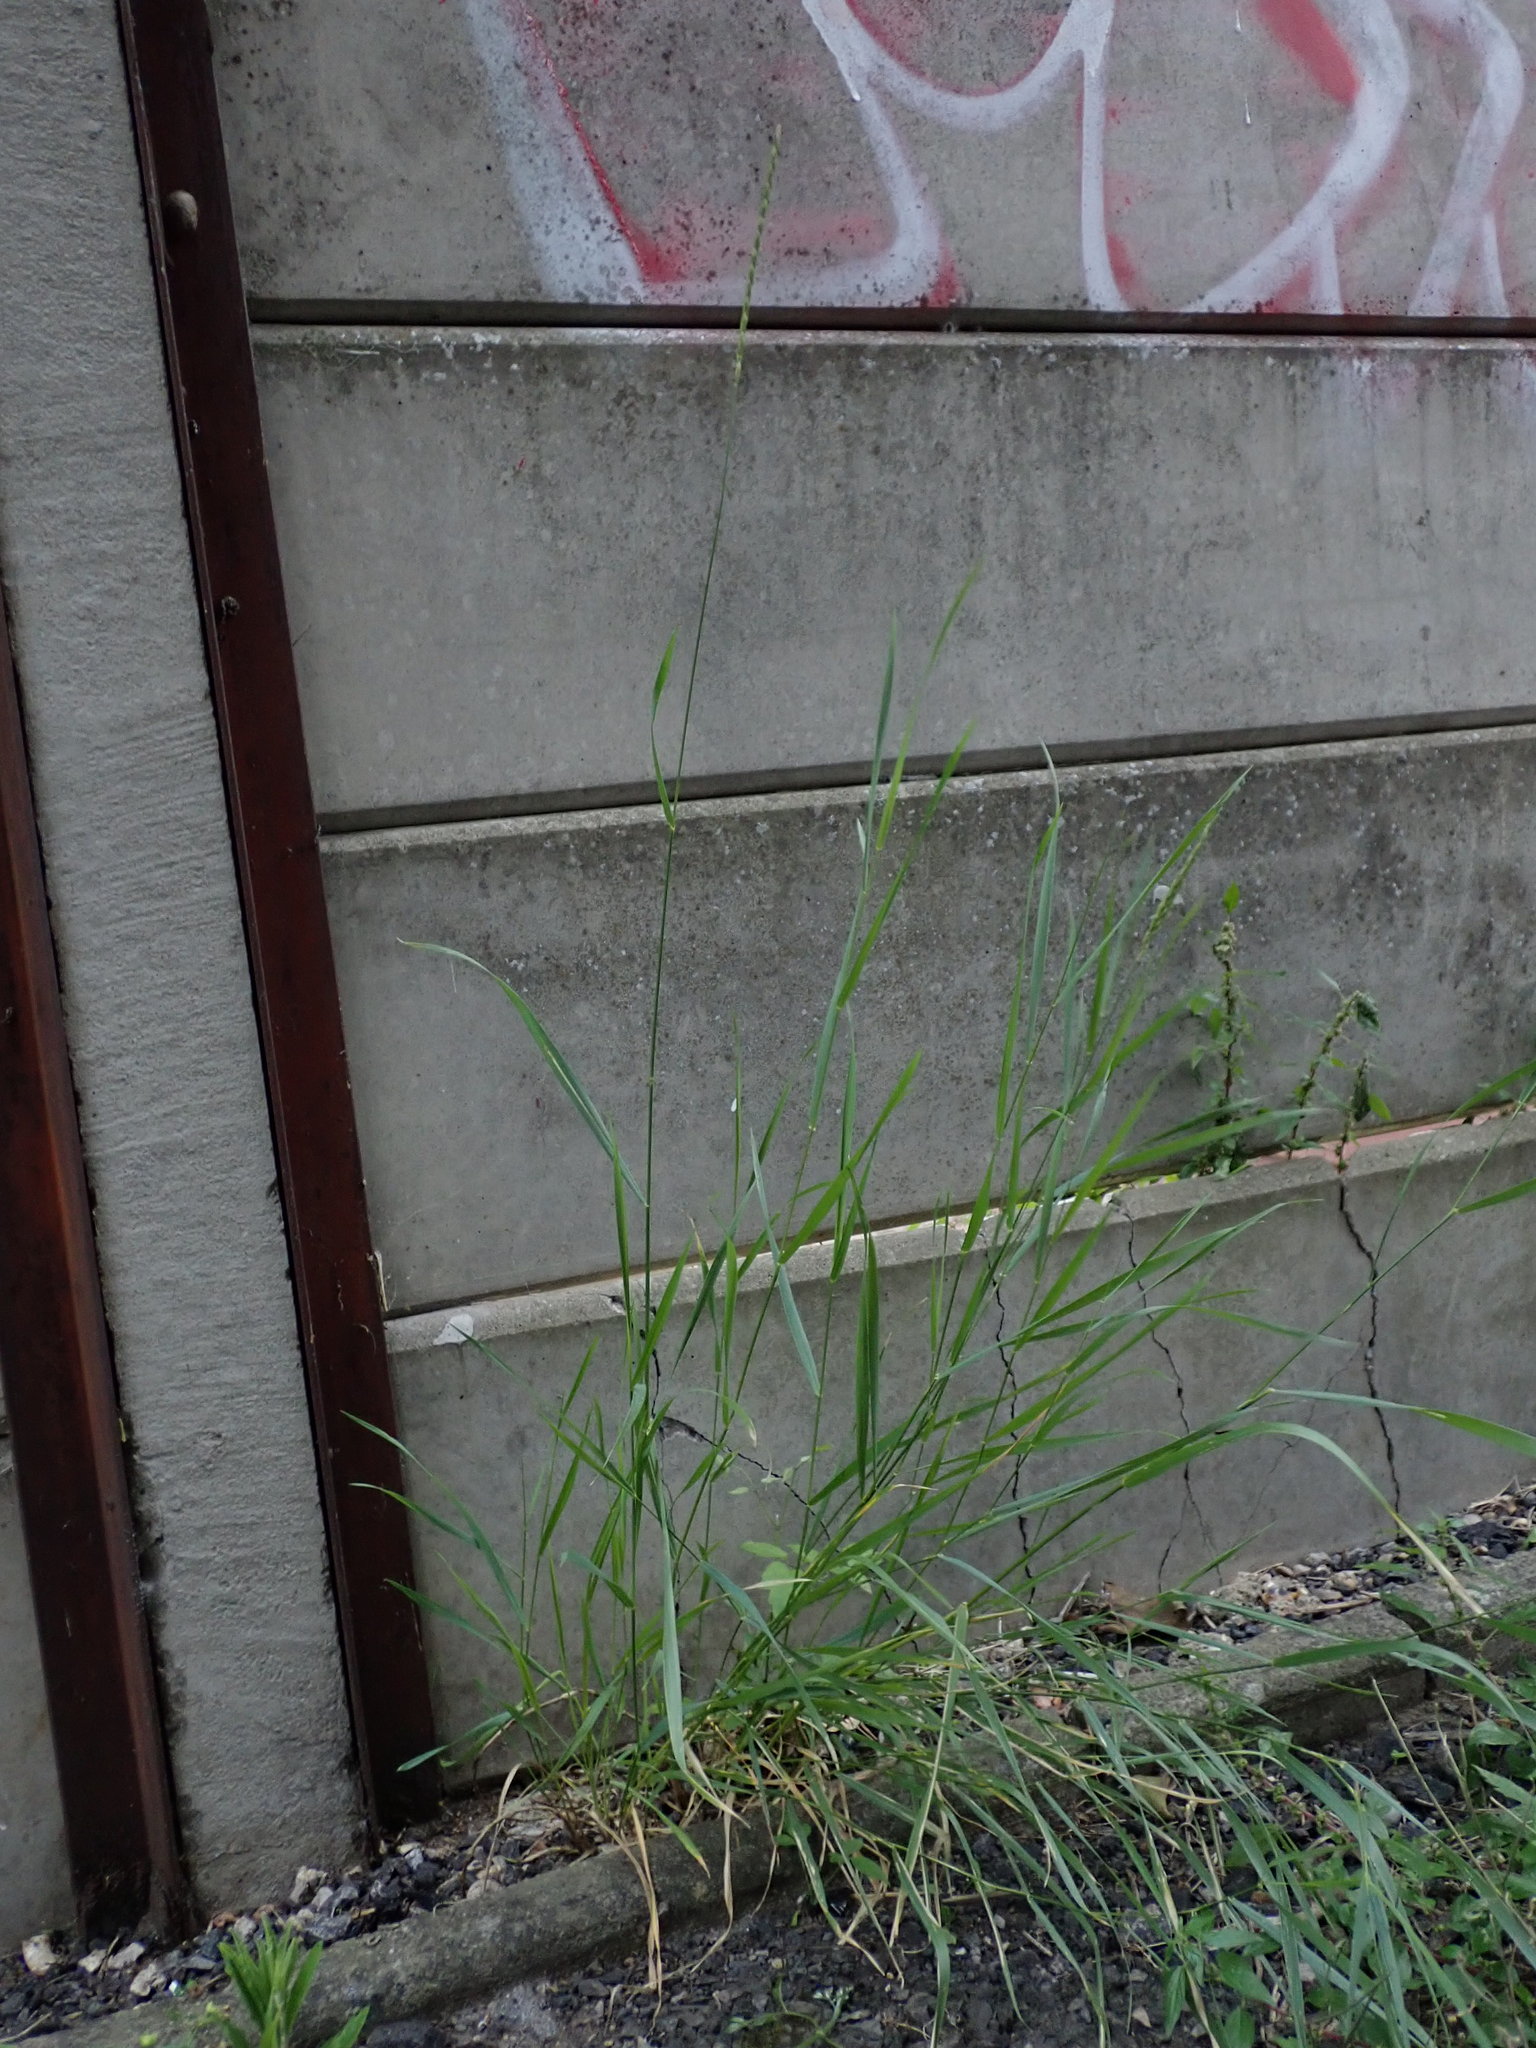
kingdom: Plantae
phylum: Tracheophyta
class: Liliopsida
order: Poales
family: Poaceae
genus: Elymus
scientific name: Elymus repens
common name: Quackgrass
